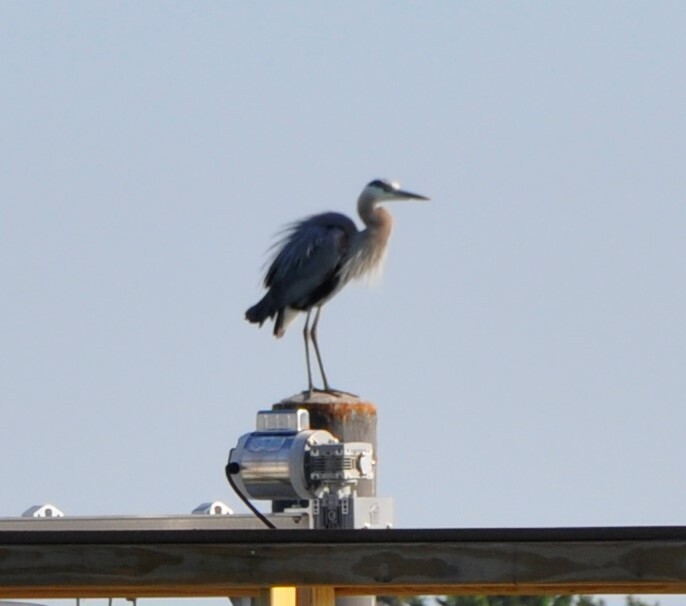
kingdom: Animalia
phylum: Chordata
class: Aves
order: Pelecaniformes
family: Ardeidae
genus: Ardea
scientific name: Ardea herodias
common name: Great blue heron
